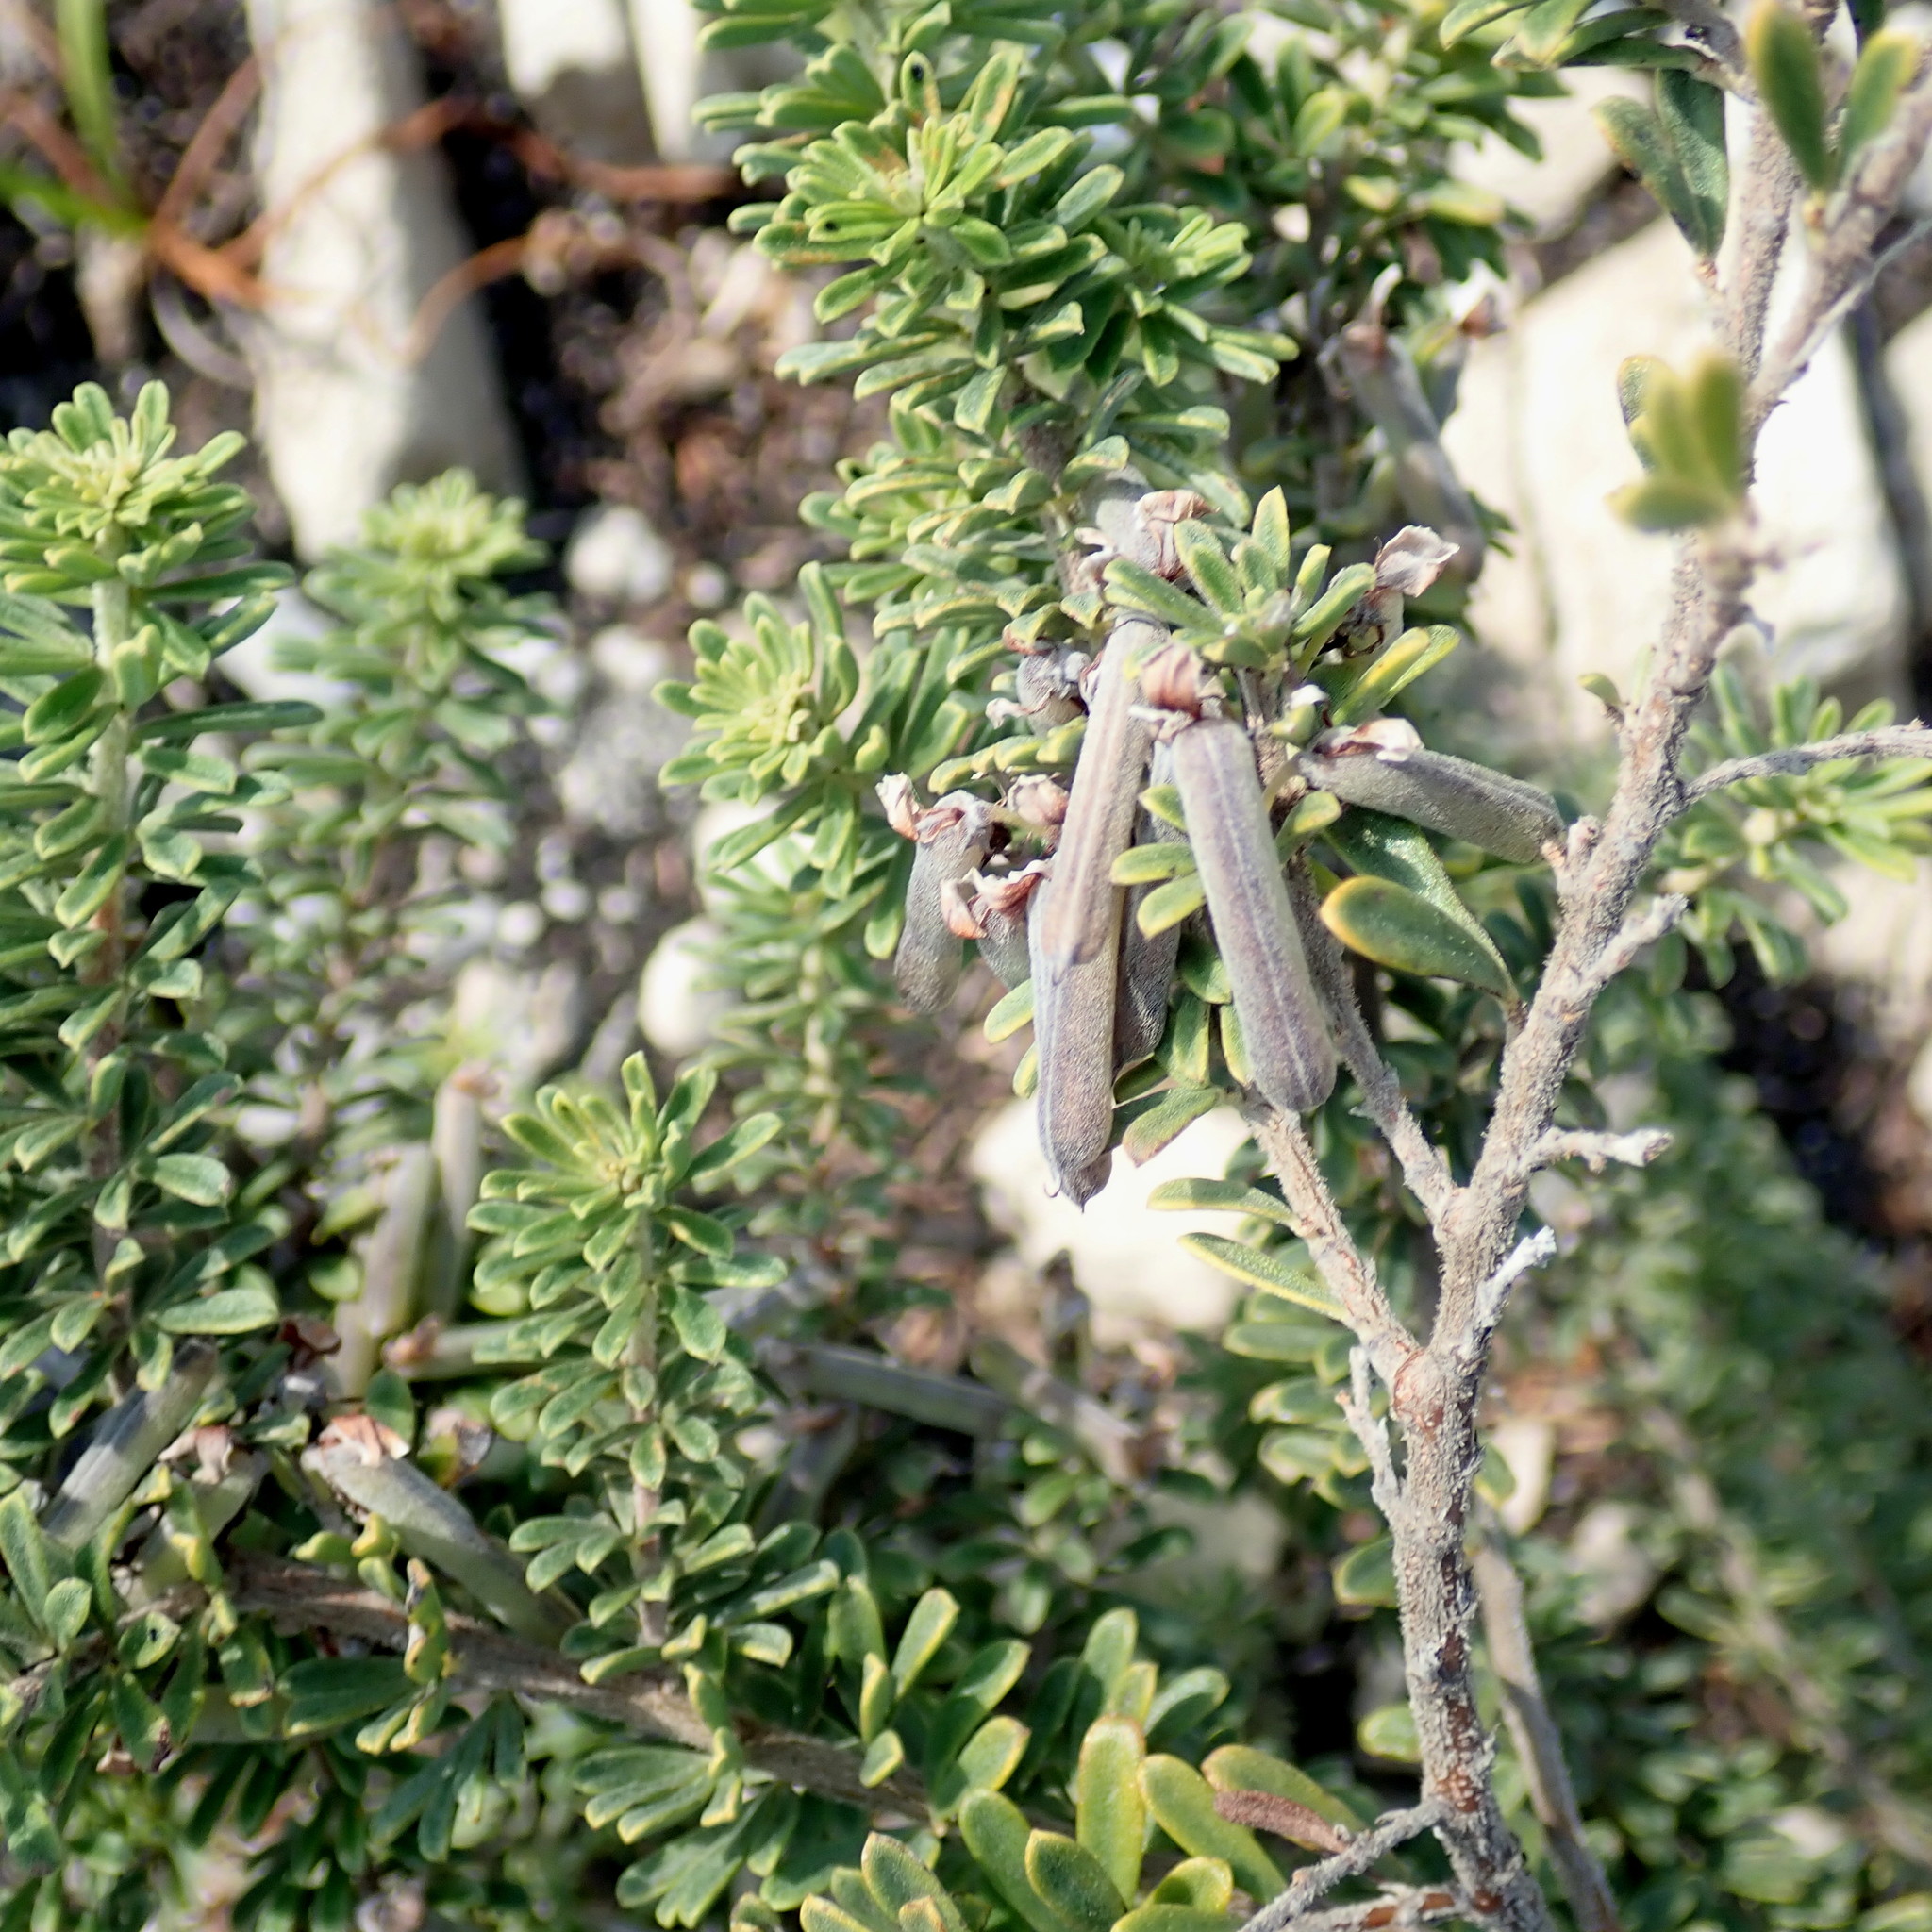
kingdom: Plantae
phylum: Tracheophyta
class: Magnoliopsida
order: Fabales
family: Fabaceae
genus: Indigofera
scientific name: Indigofera flabellata
